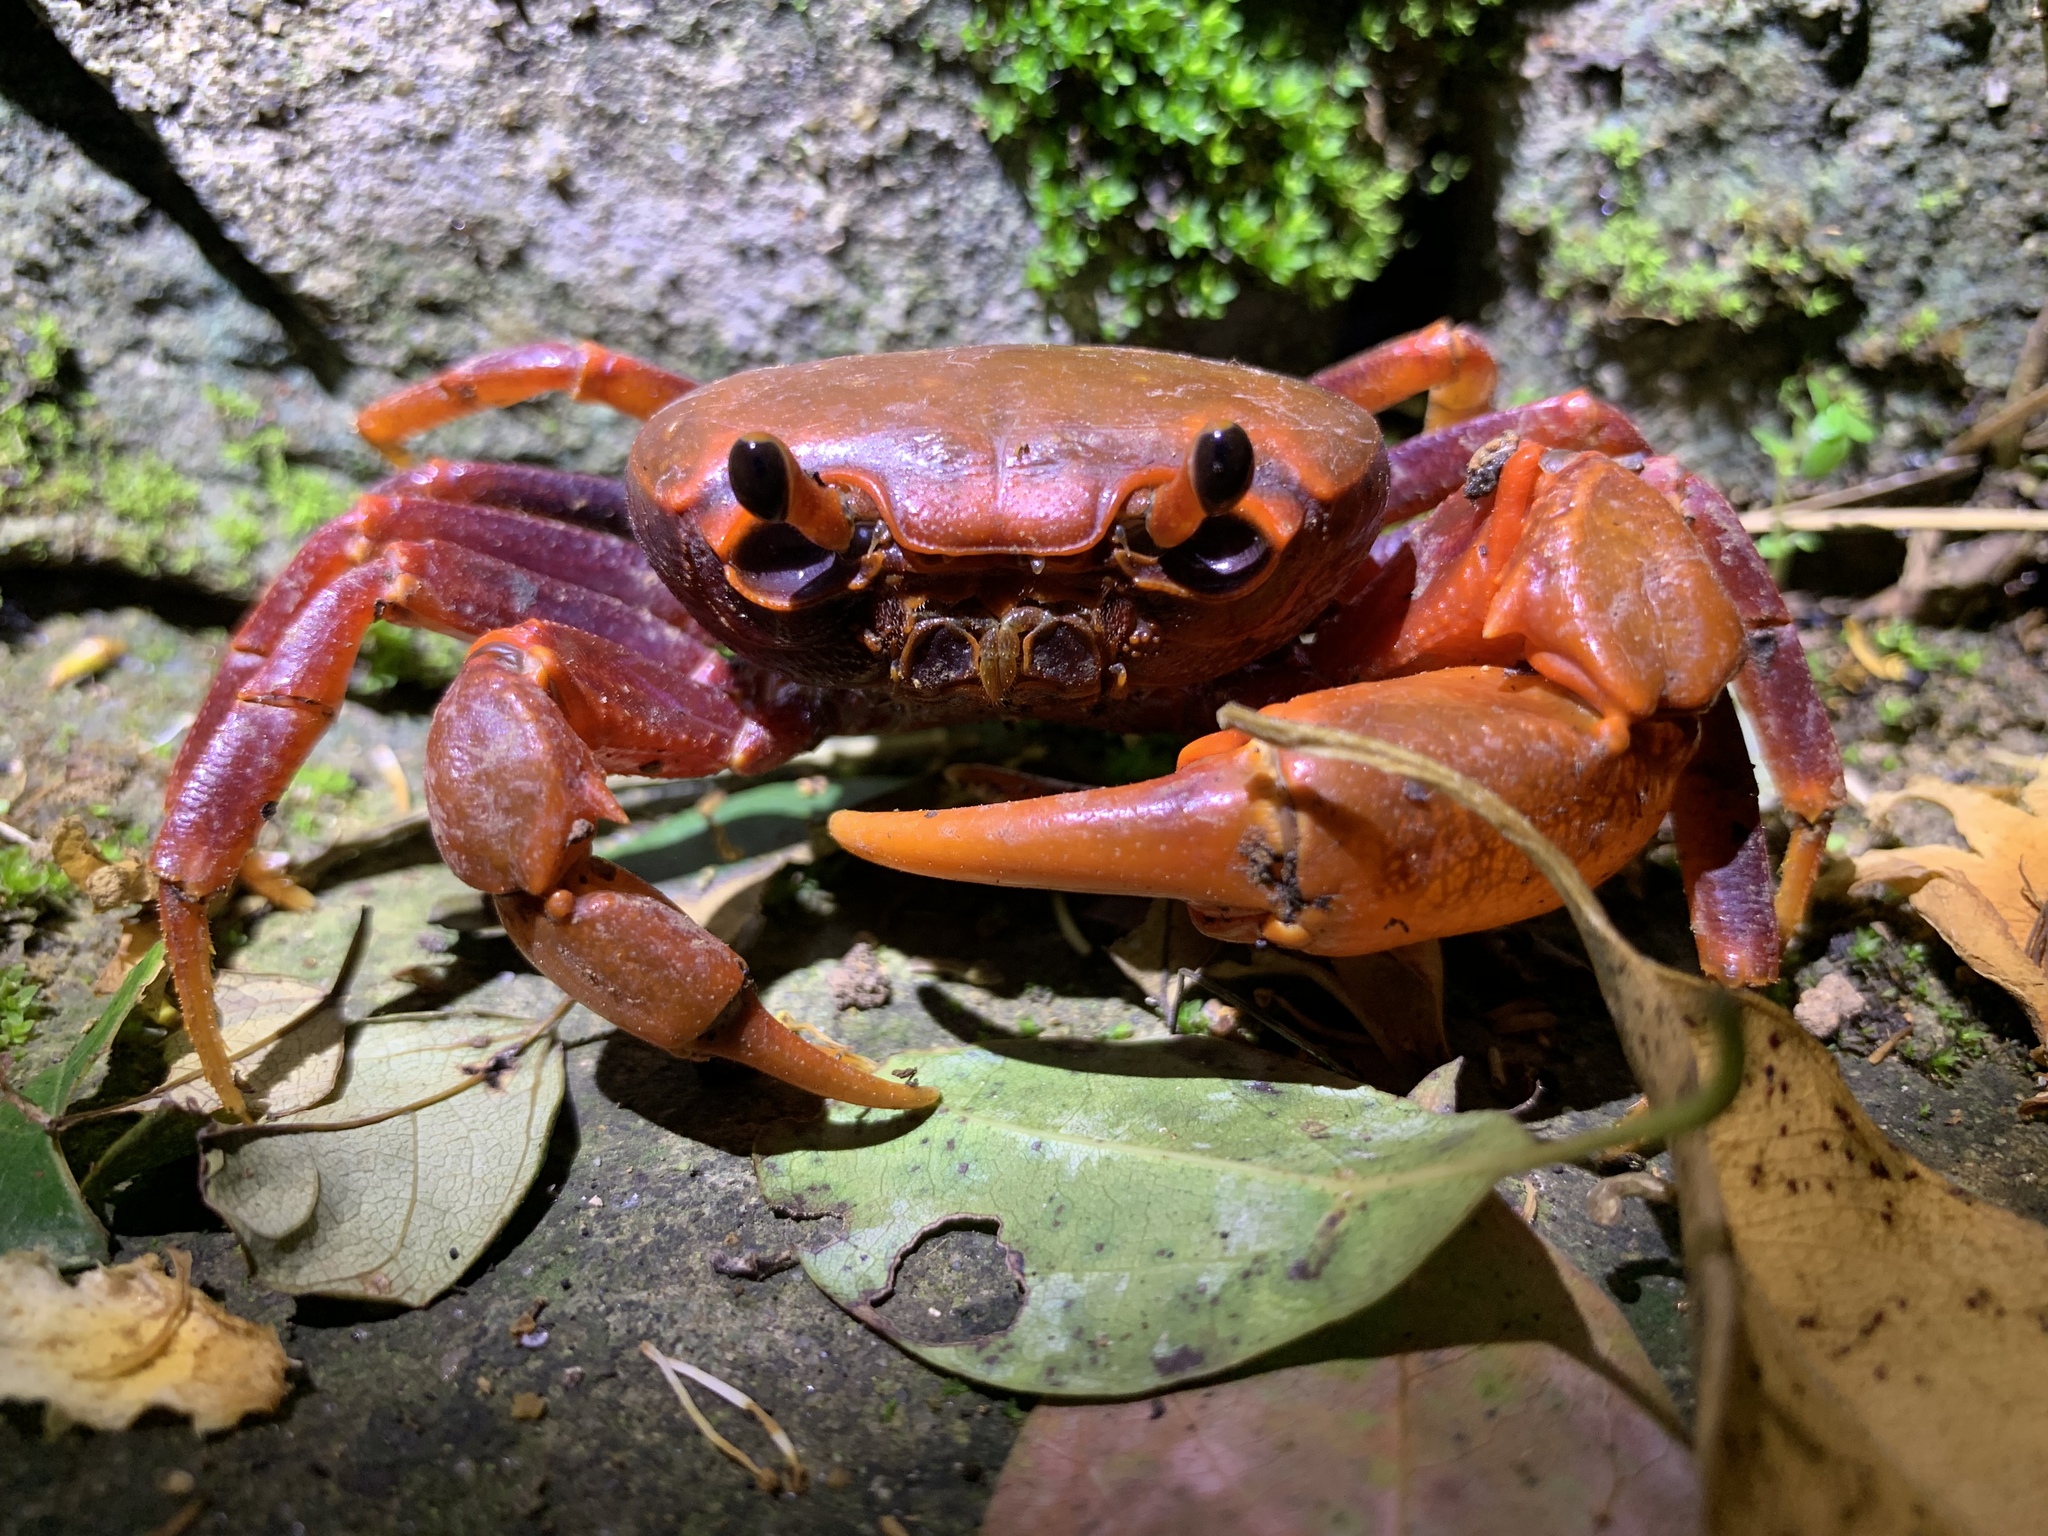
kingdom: Animalia
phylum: Arthropoda
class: Malacostraca
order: Decapoda
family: Potamidae
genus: Nanhaipotamon
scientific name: Nanhaipotamon hongkongense
